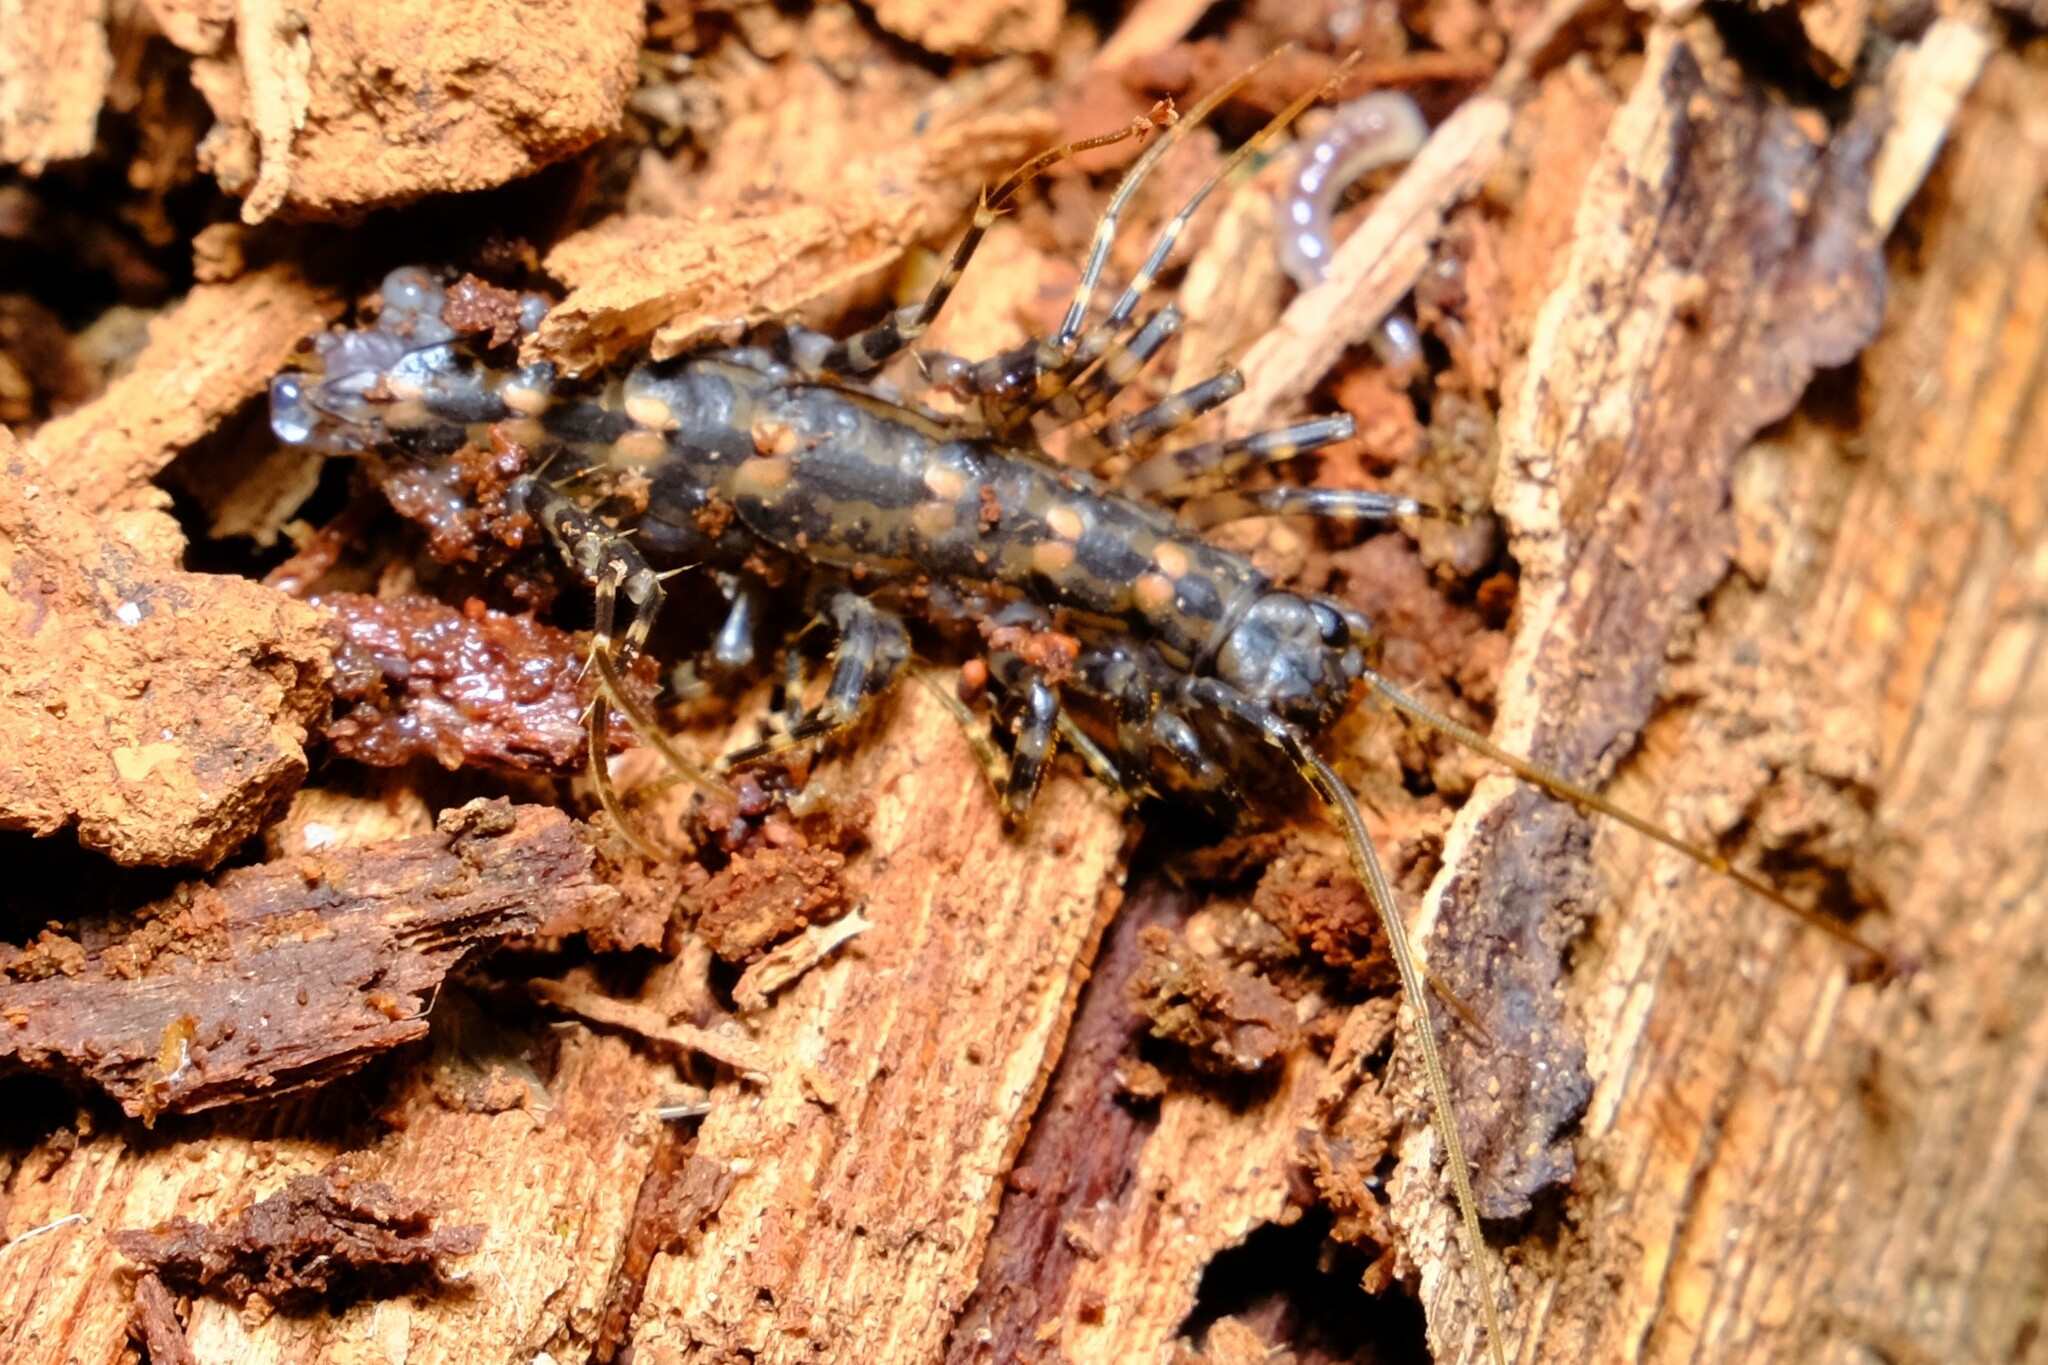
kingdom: Animalia
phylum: Arthropoda
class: Chilopoda
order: Scutigeromorpha
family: Scutigeridae
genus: Allothereua
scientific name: Allothereua maculata
